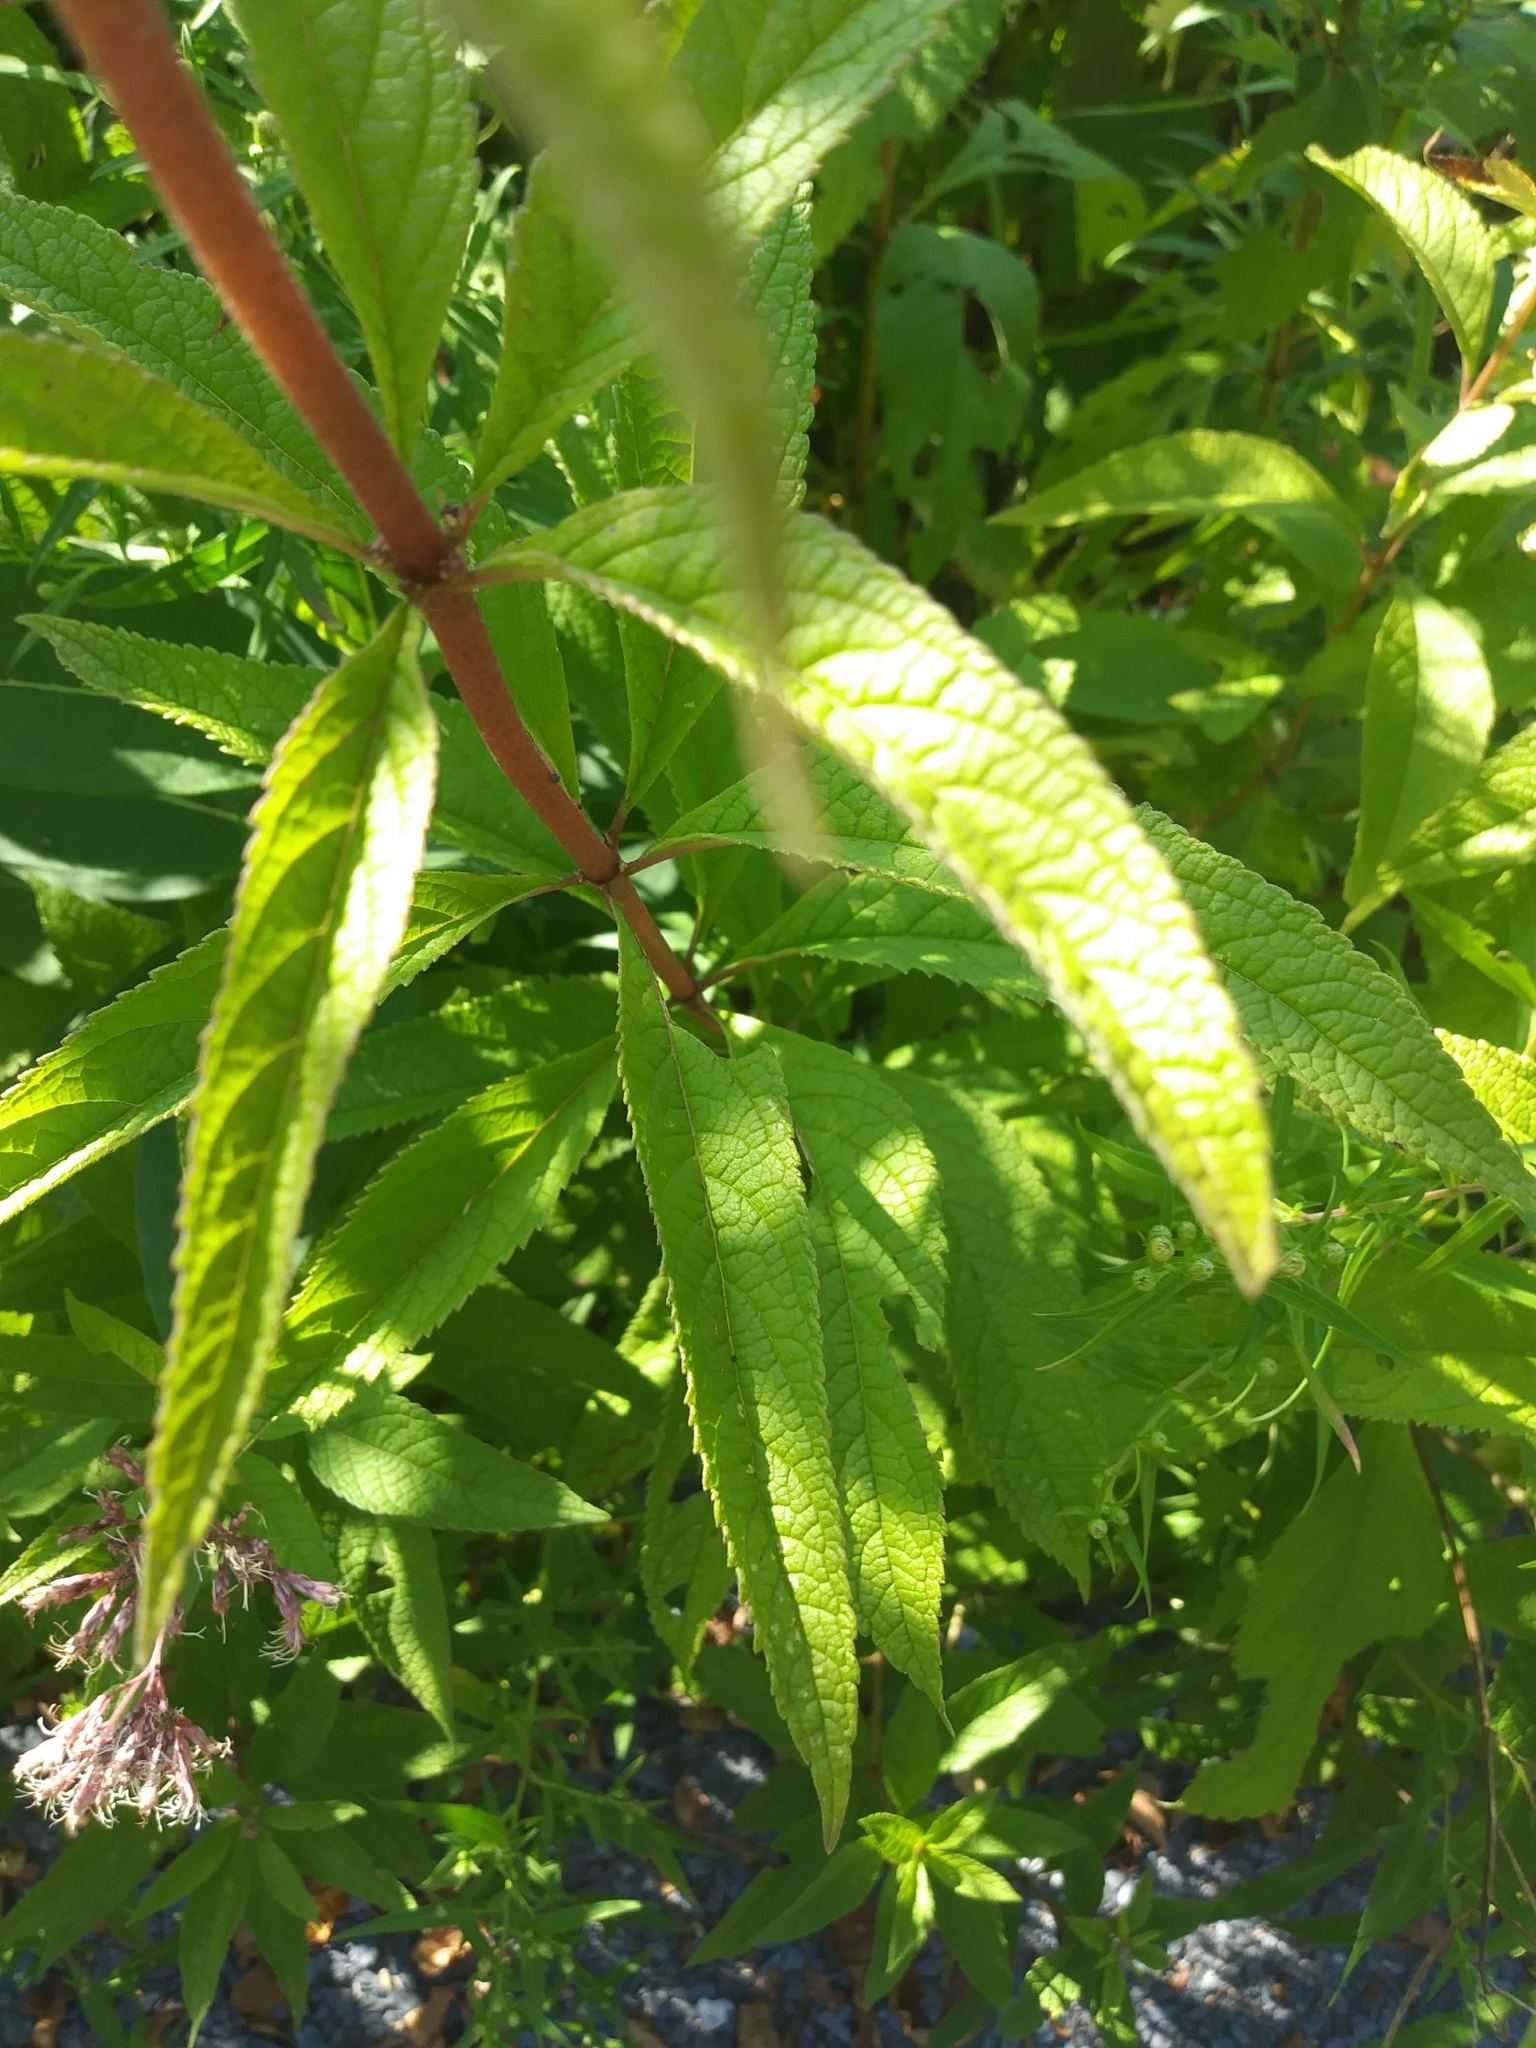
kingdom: Plantae
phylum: Tracheophyta
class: Magnoliopsida
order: Asterales
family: Asteraceae
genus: Eutrochium
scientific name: Eutrochium maculatum
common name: Spotted joe pye weed
